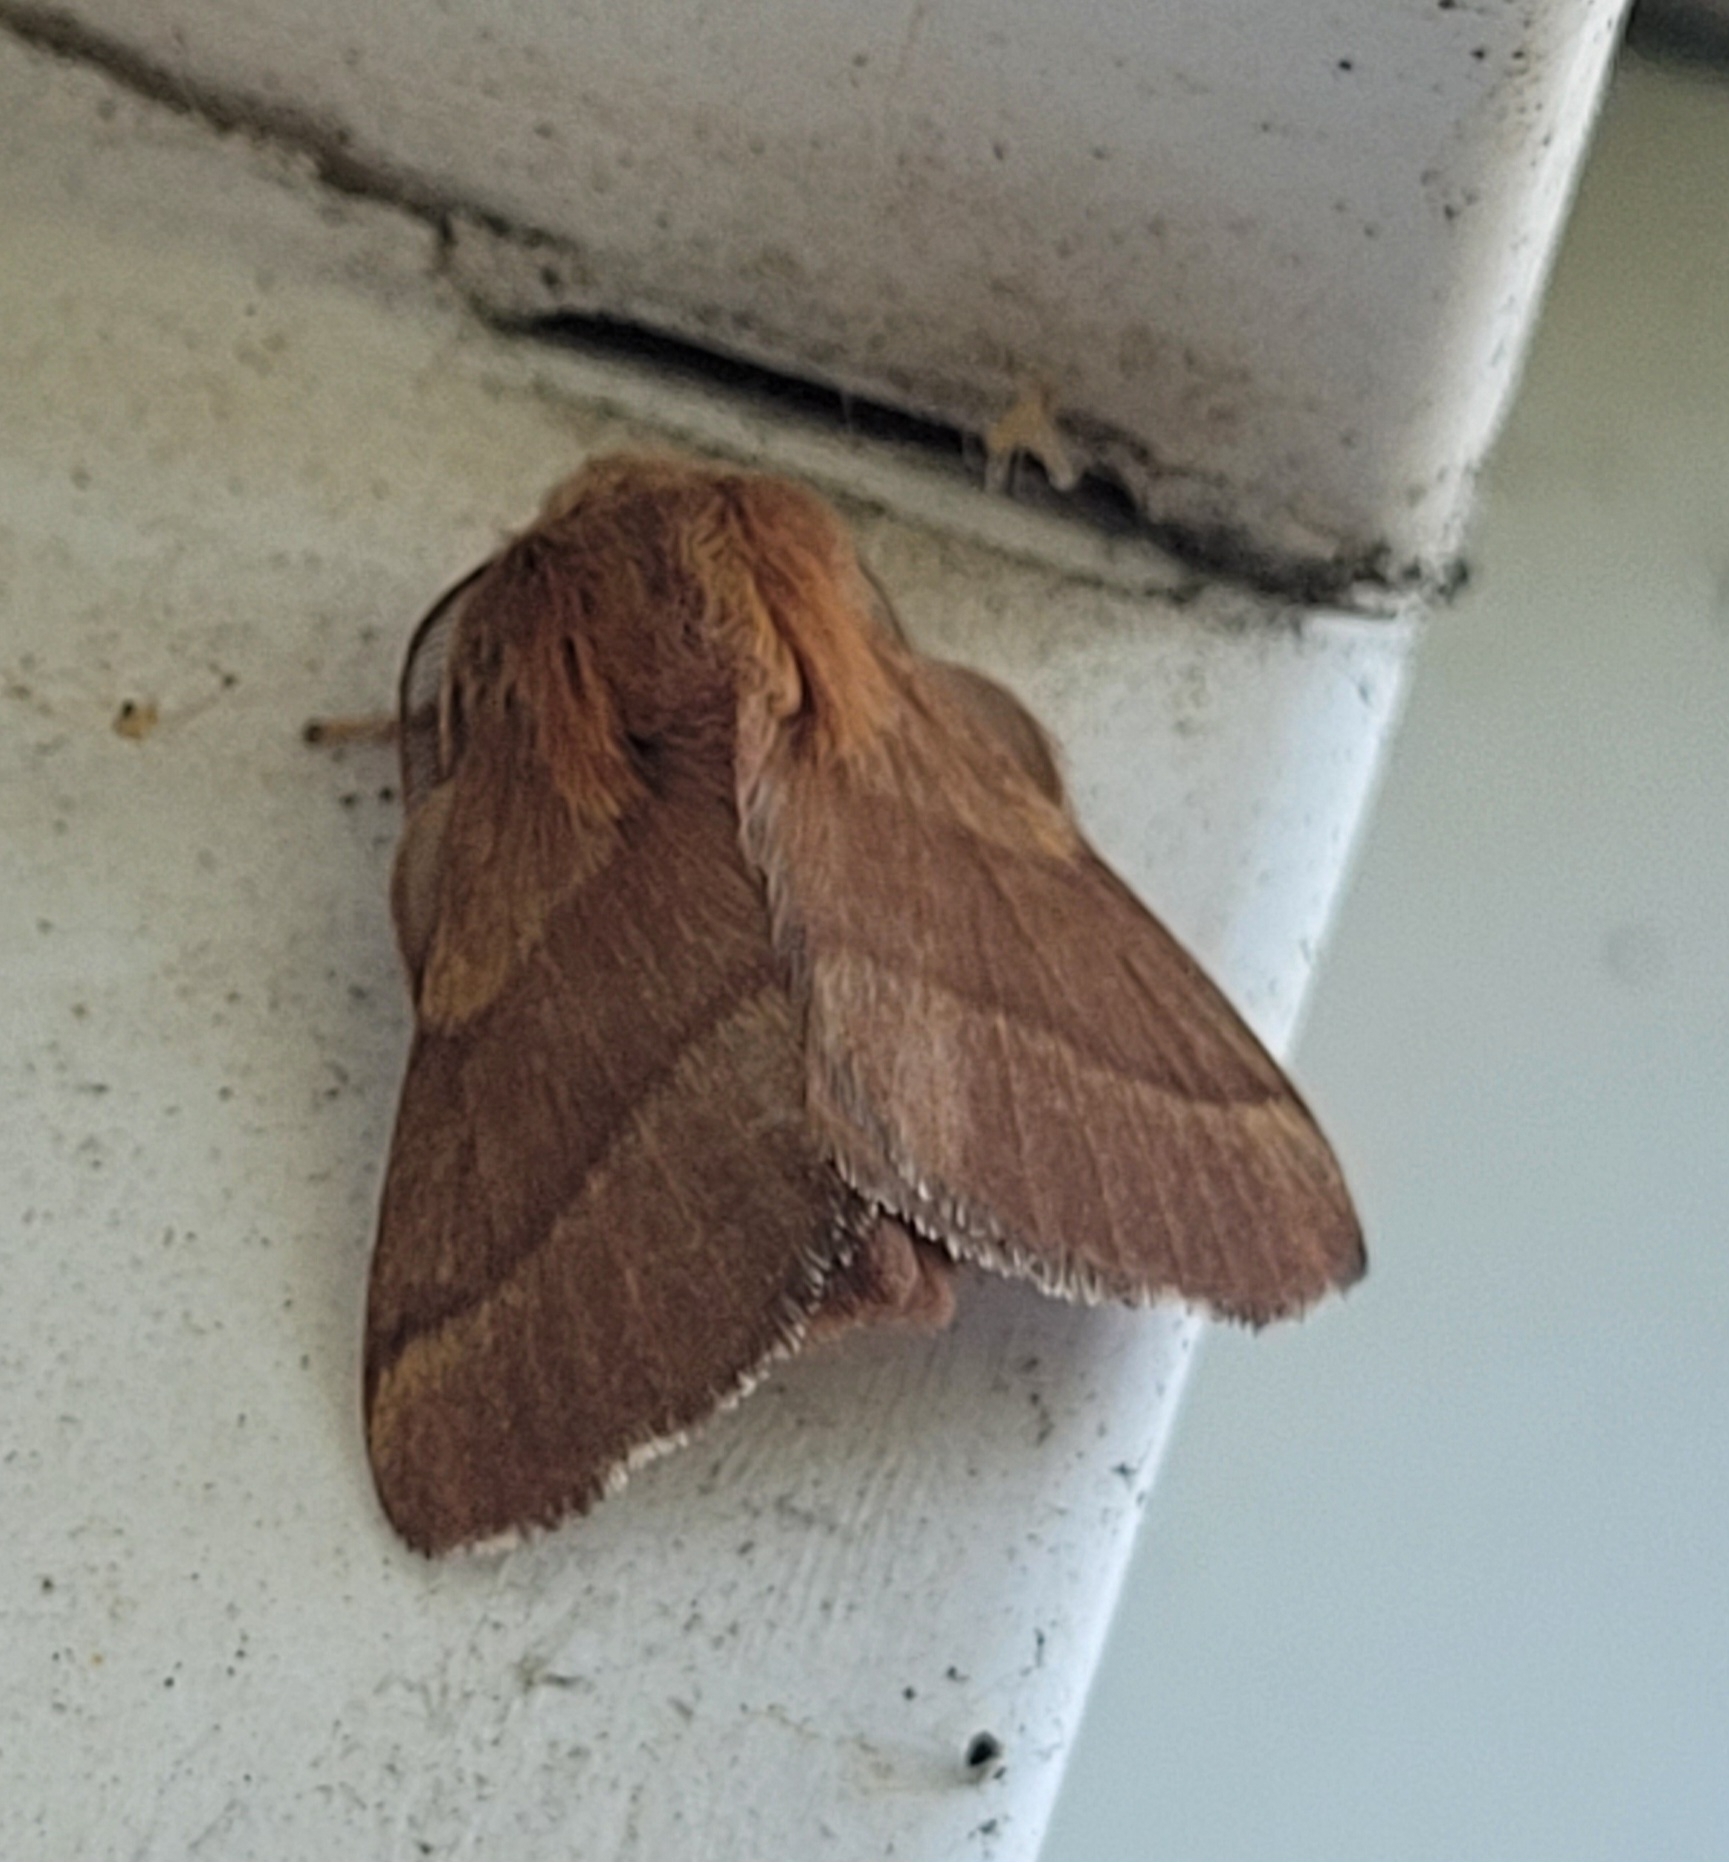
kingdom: Animalia
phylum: Arthropoda
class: Insecta
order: Lepidoptera
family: Lasiocampidae
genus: Malacosoma
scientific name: Malacosoma disstria
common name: Forest tent caterpillar
